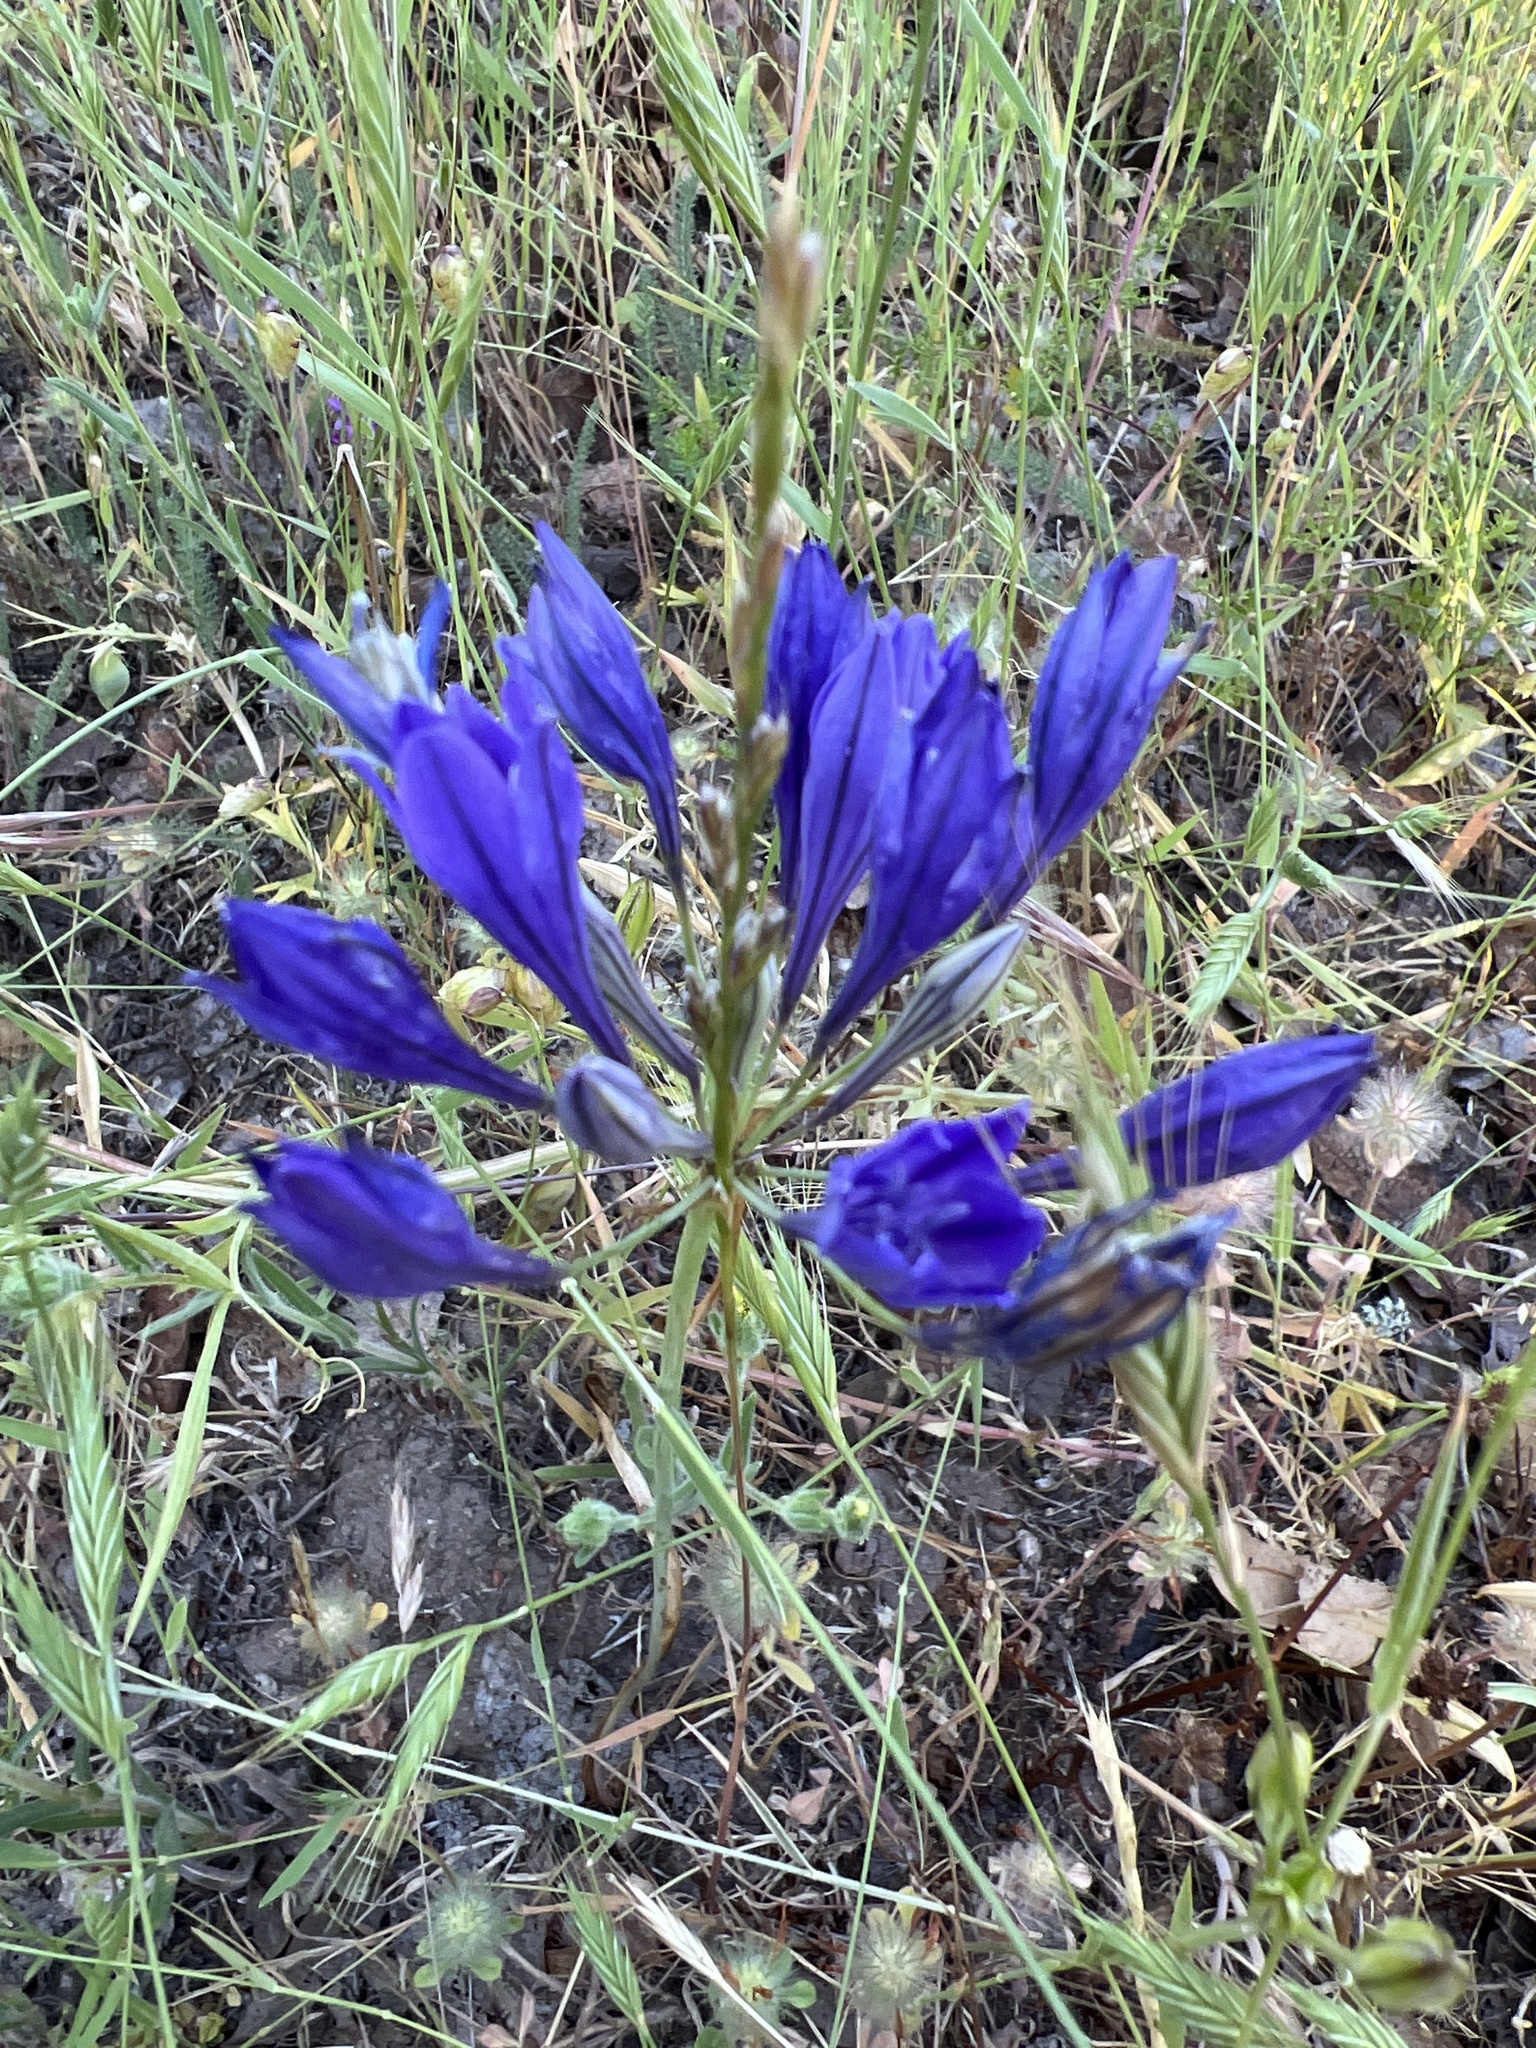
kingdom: Plantae
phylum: Tracheophyta
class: Liliopsida
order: Asparagales
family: Asparagaceae
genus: Triteleia
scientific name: Triteleia laxa
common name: Triplet-lily
